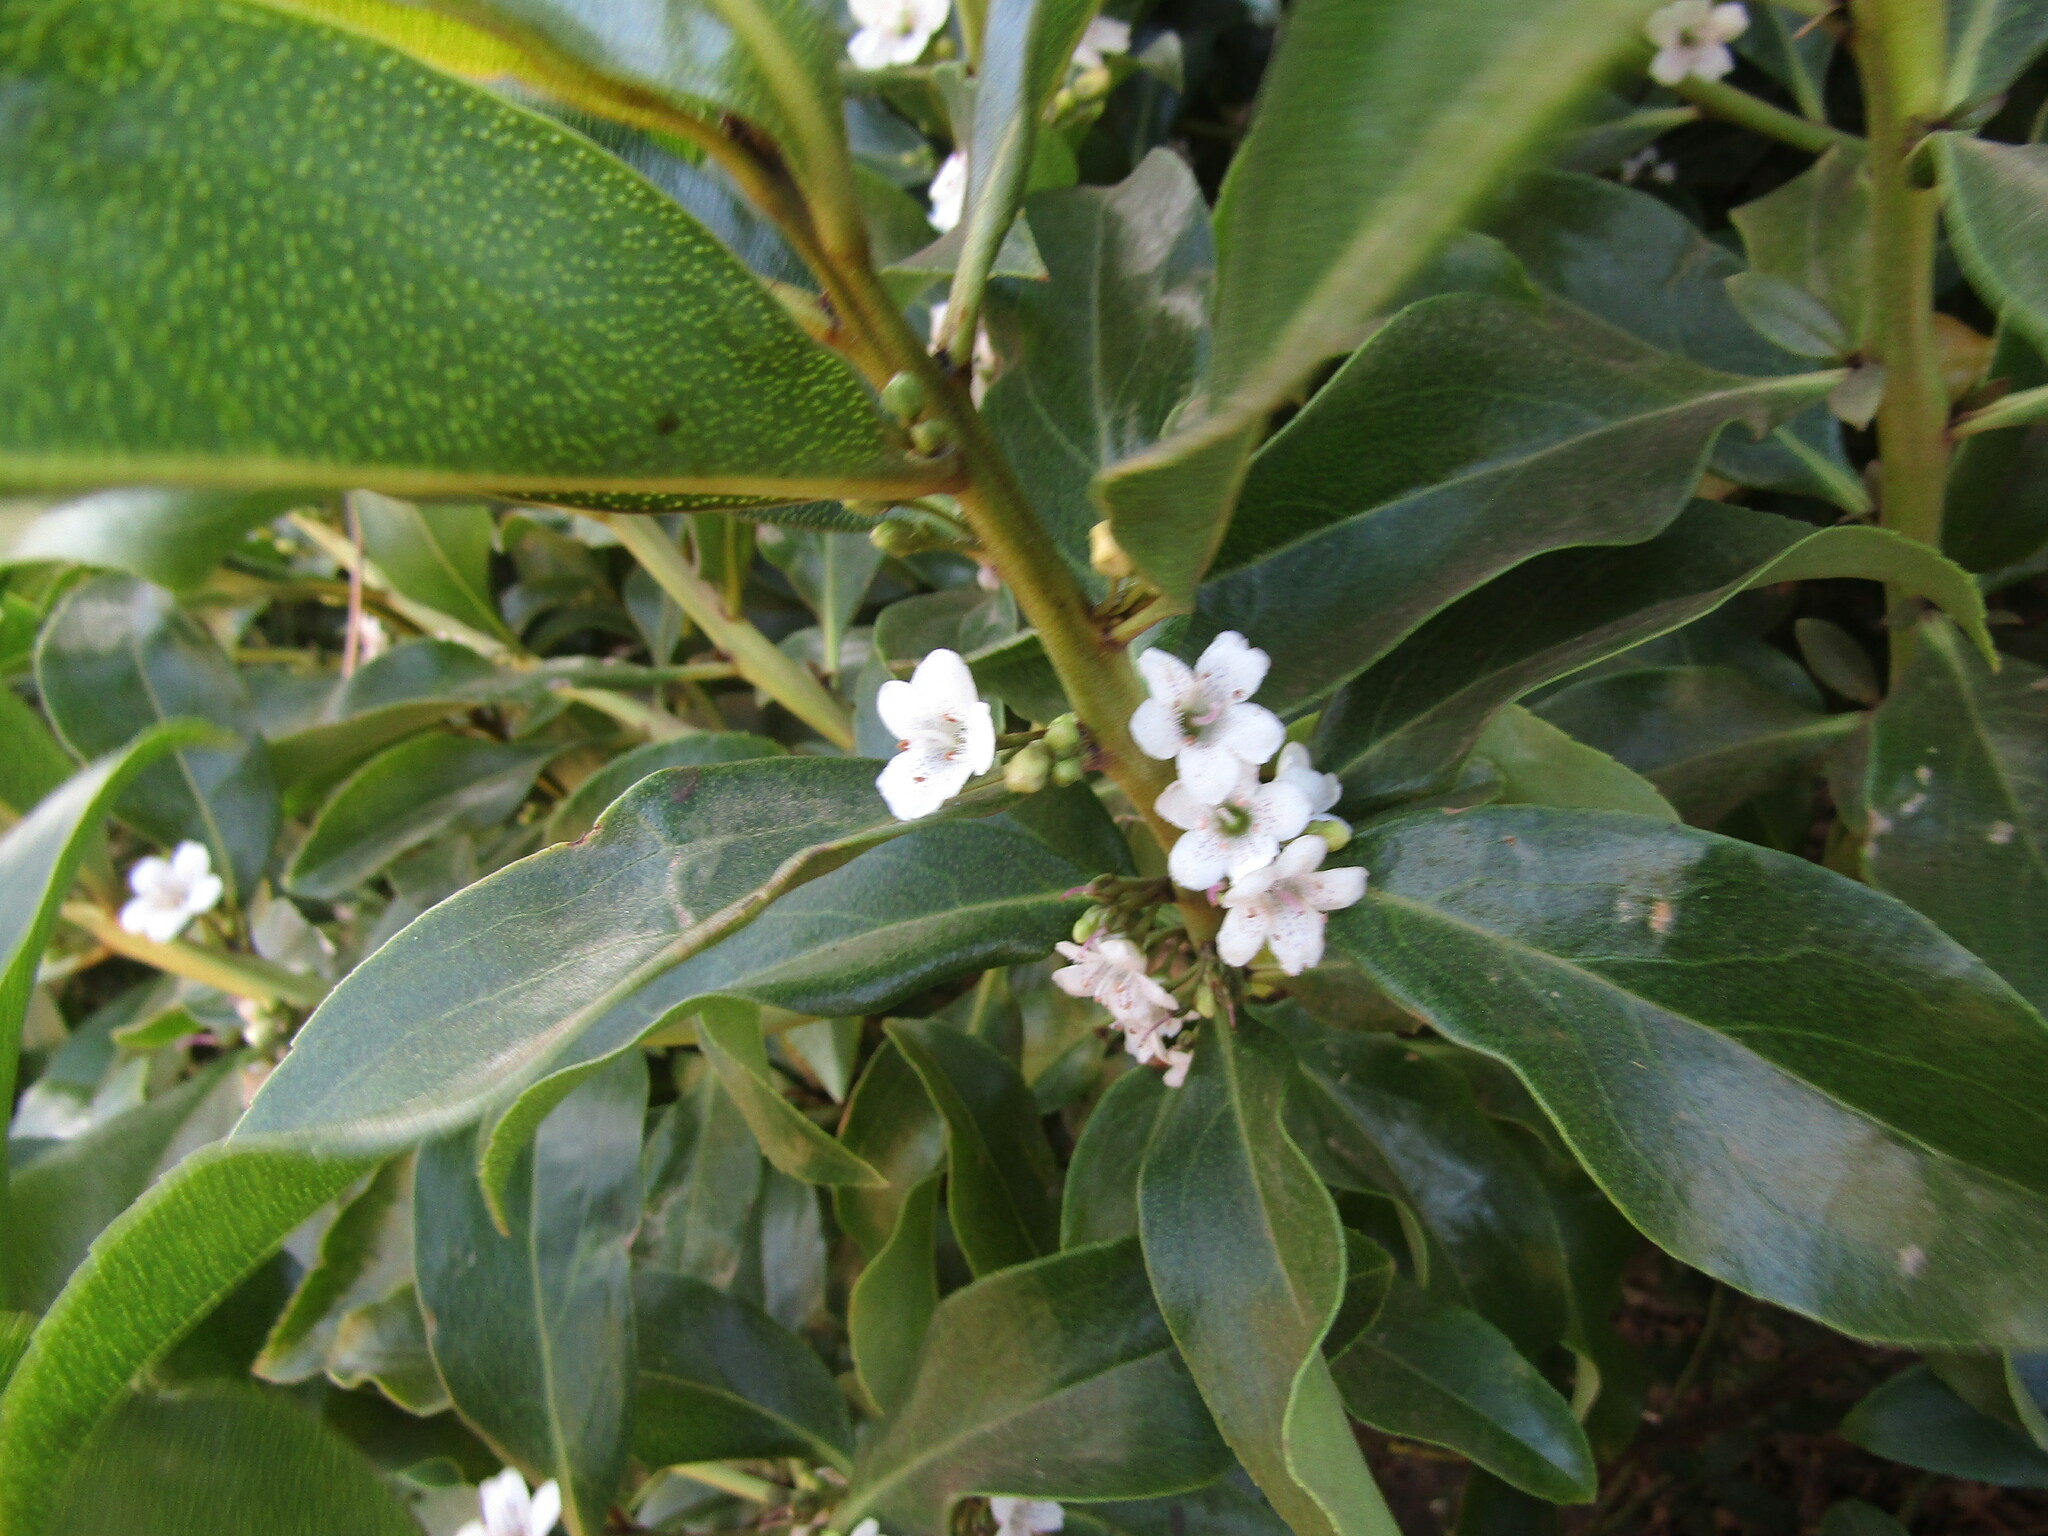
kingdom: Plantae
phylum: Tracheophyta
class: Magnoliopsida
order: Lamiales
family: Scrophulariaceae
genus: Myoporum
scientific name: Myoporum laetum
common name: Ngaio tree
